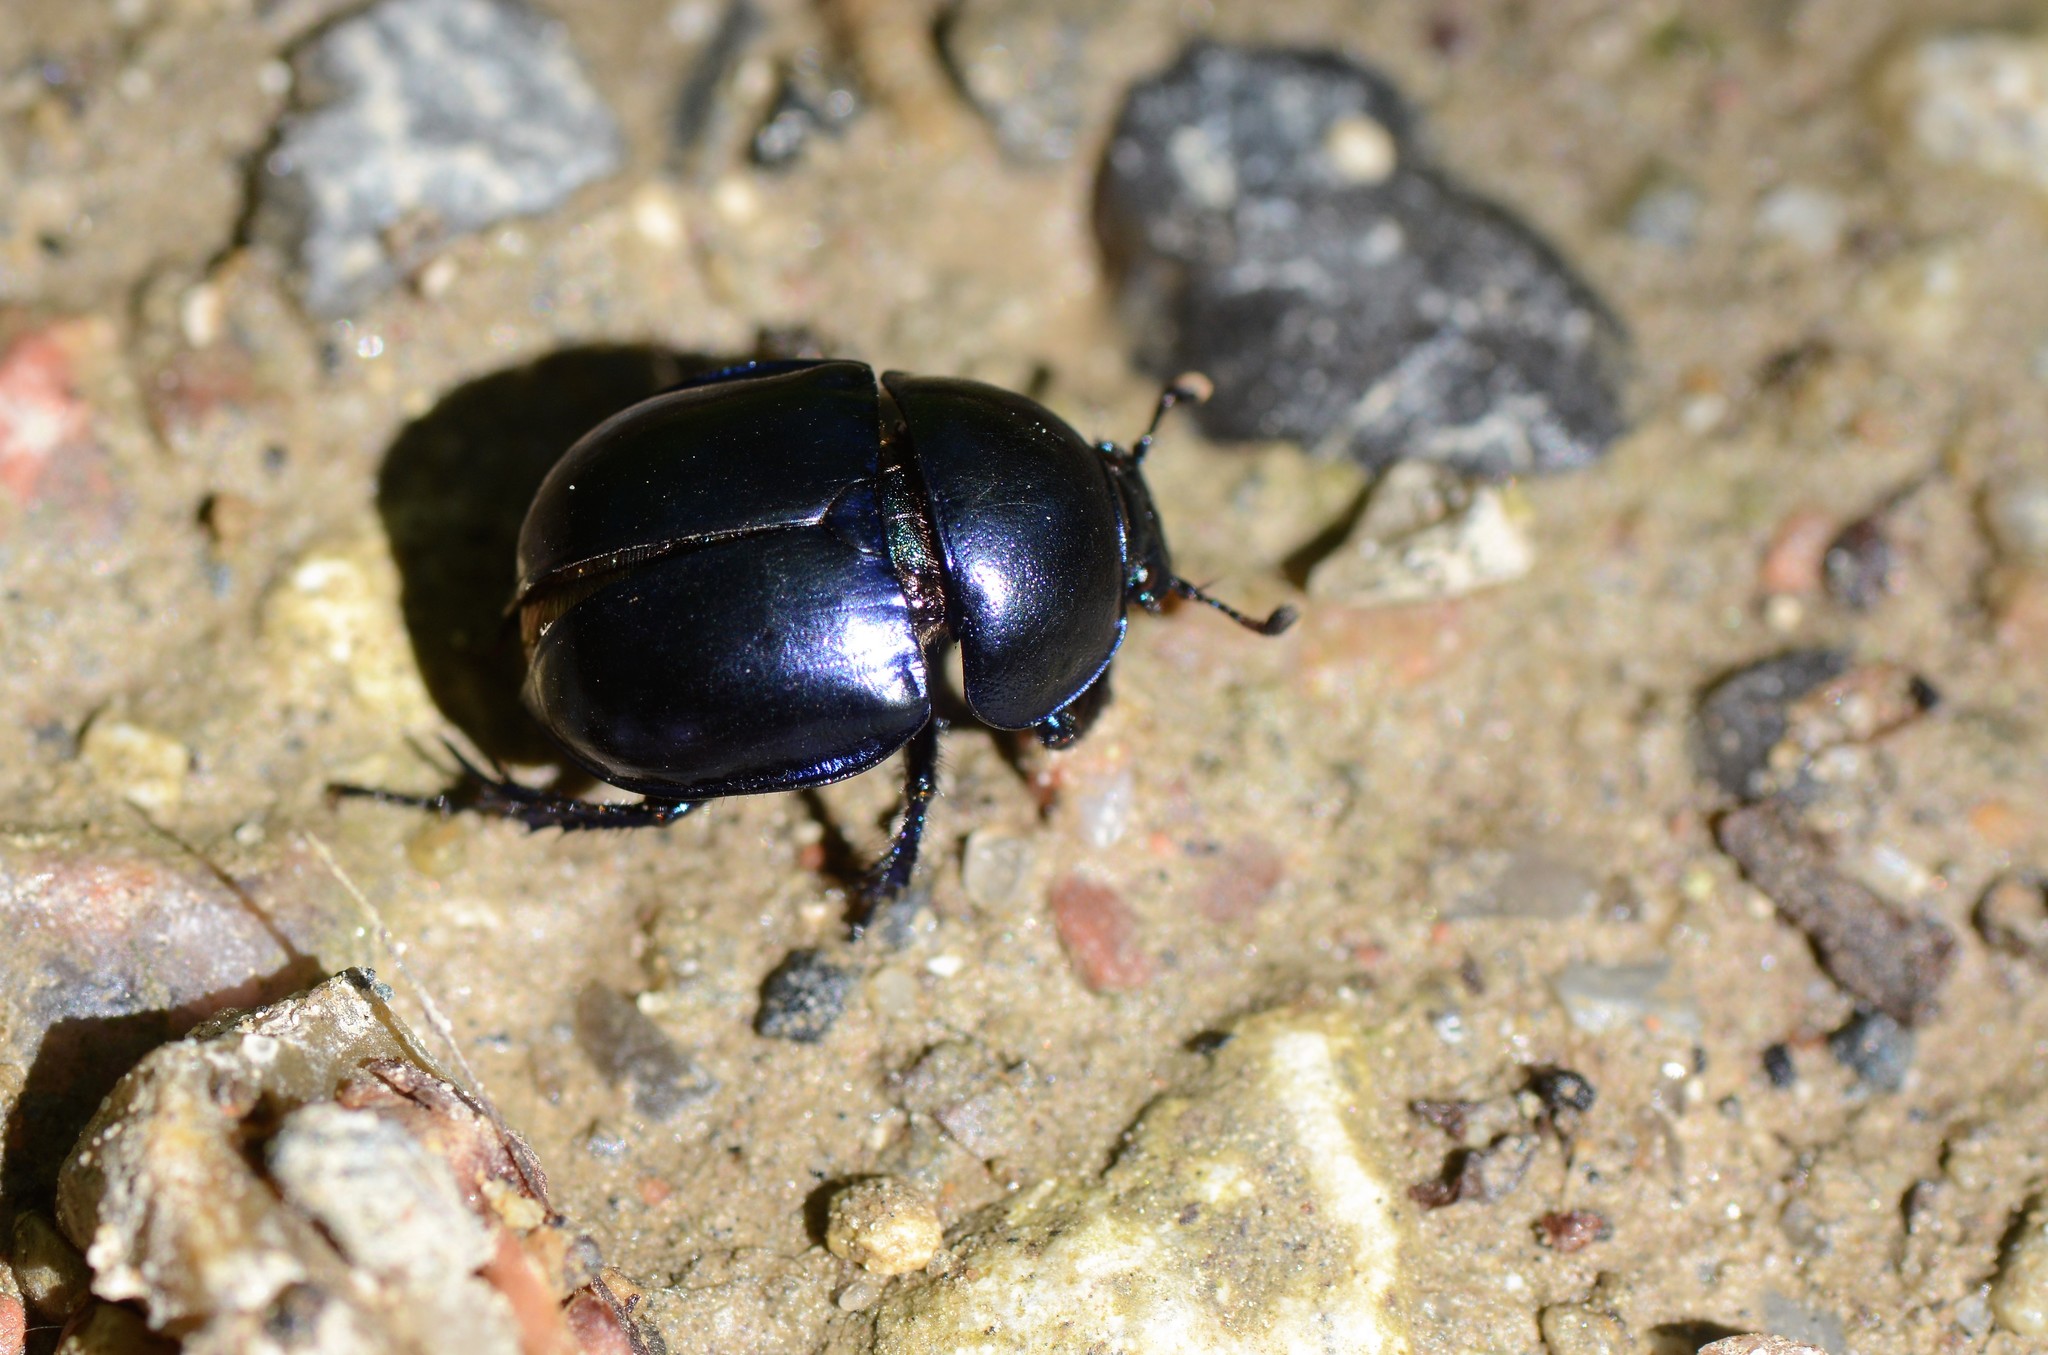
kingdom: Animalia
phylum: Arthropoda
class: Insecta
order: Coleoptera
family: Geotrupidae
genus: Trypocopris
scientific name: Trypocopris vernalis
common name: Spring dumbledor
